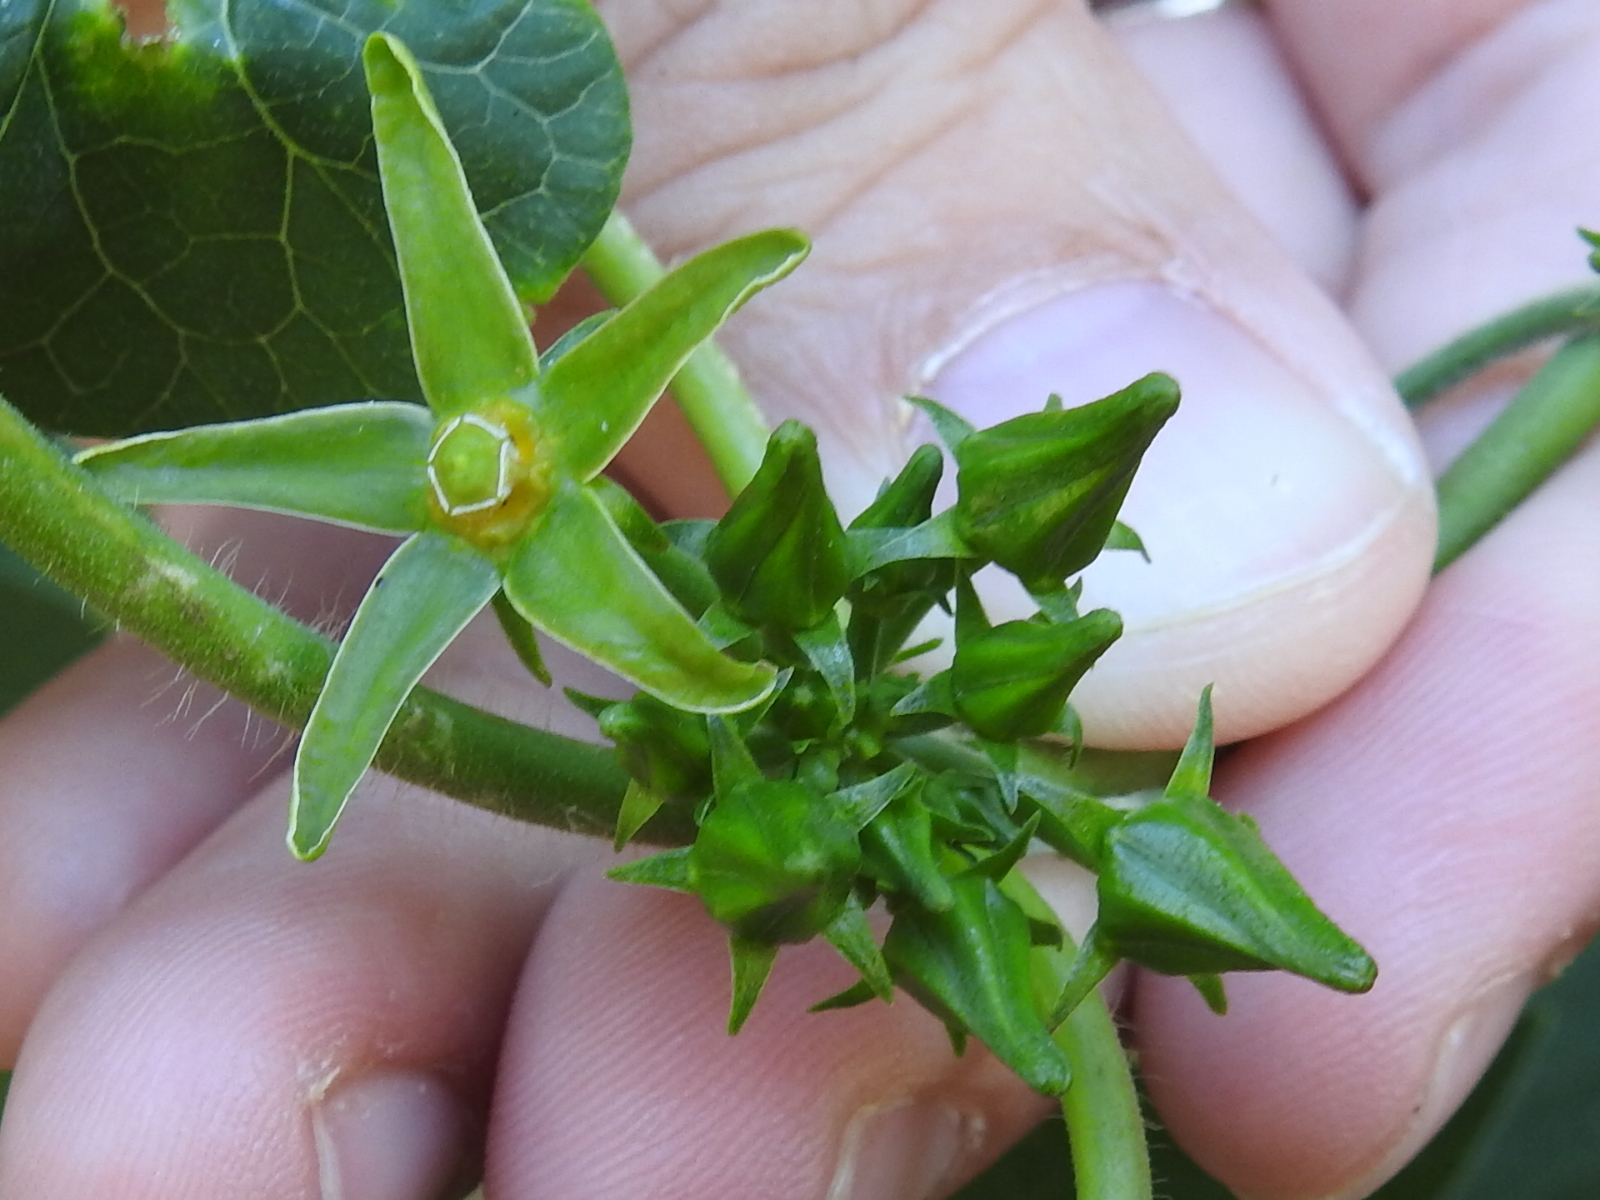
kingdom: Plantae
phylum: Tracheophyta
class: Magnoliopsida
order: Gentianales
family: Apocynaceae
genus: Gonolobus
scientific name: Gonolobus suberosus
